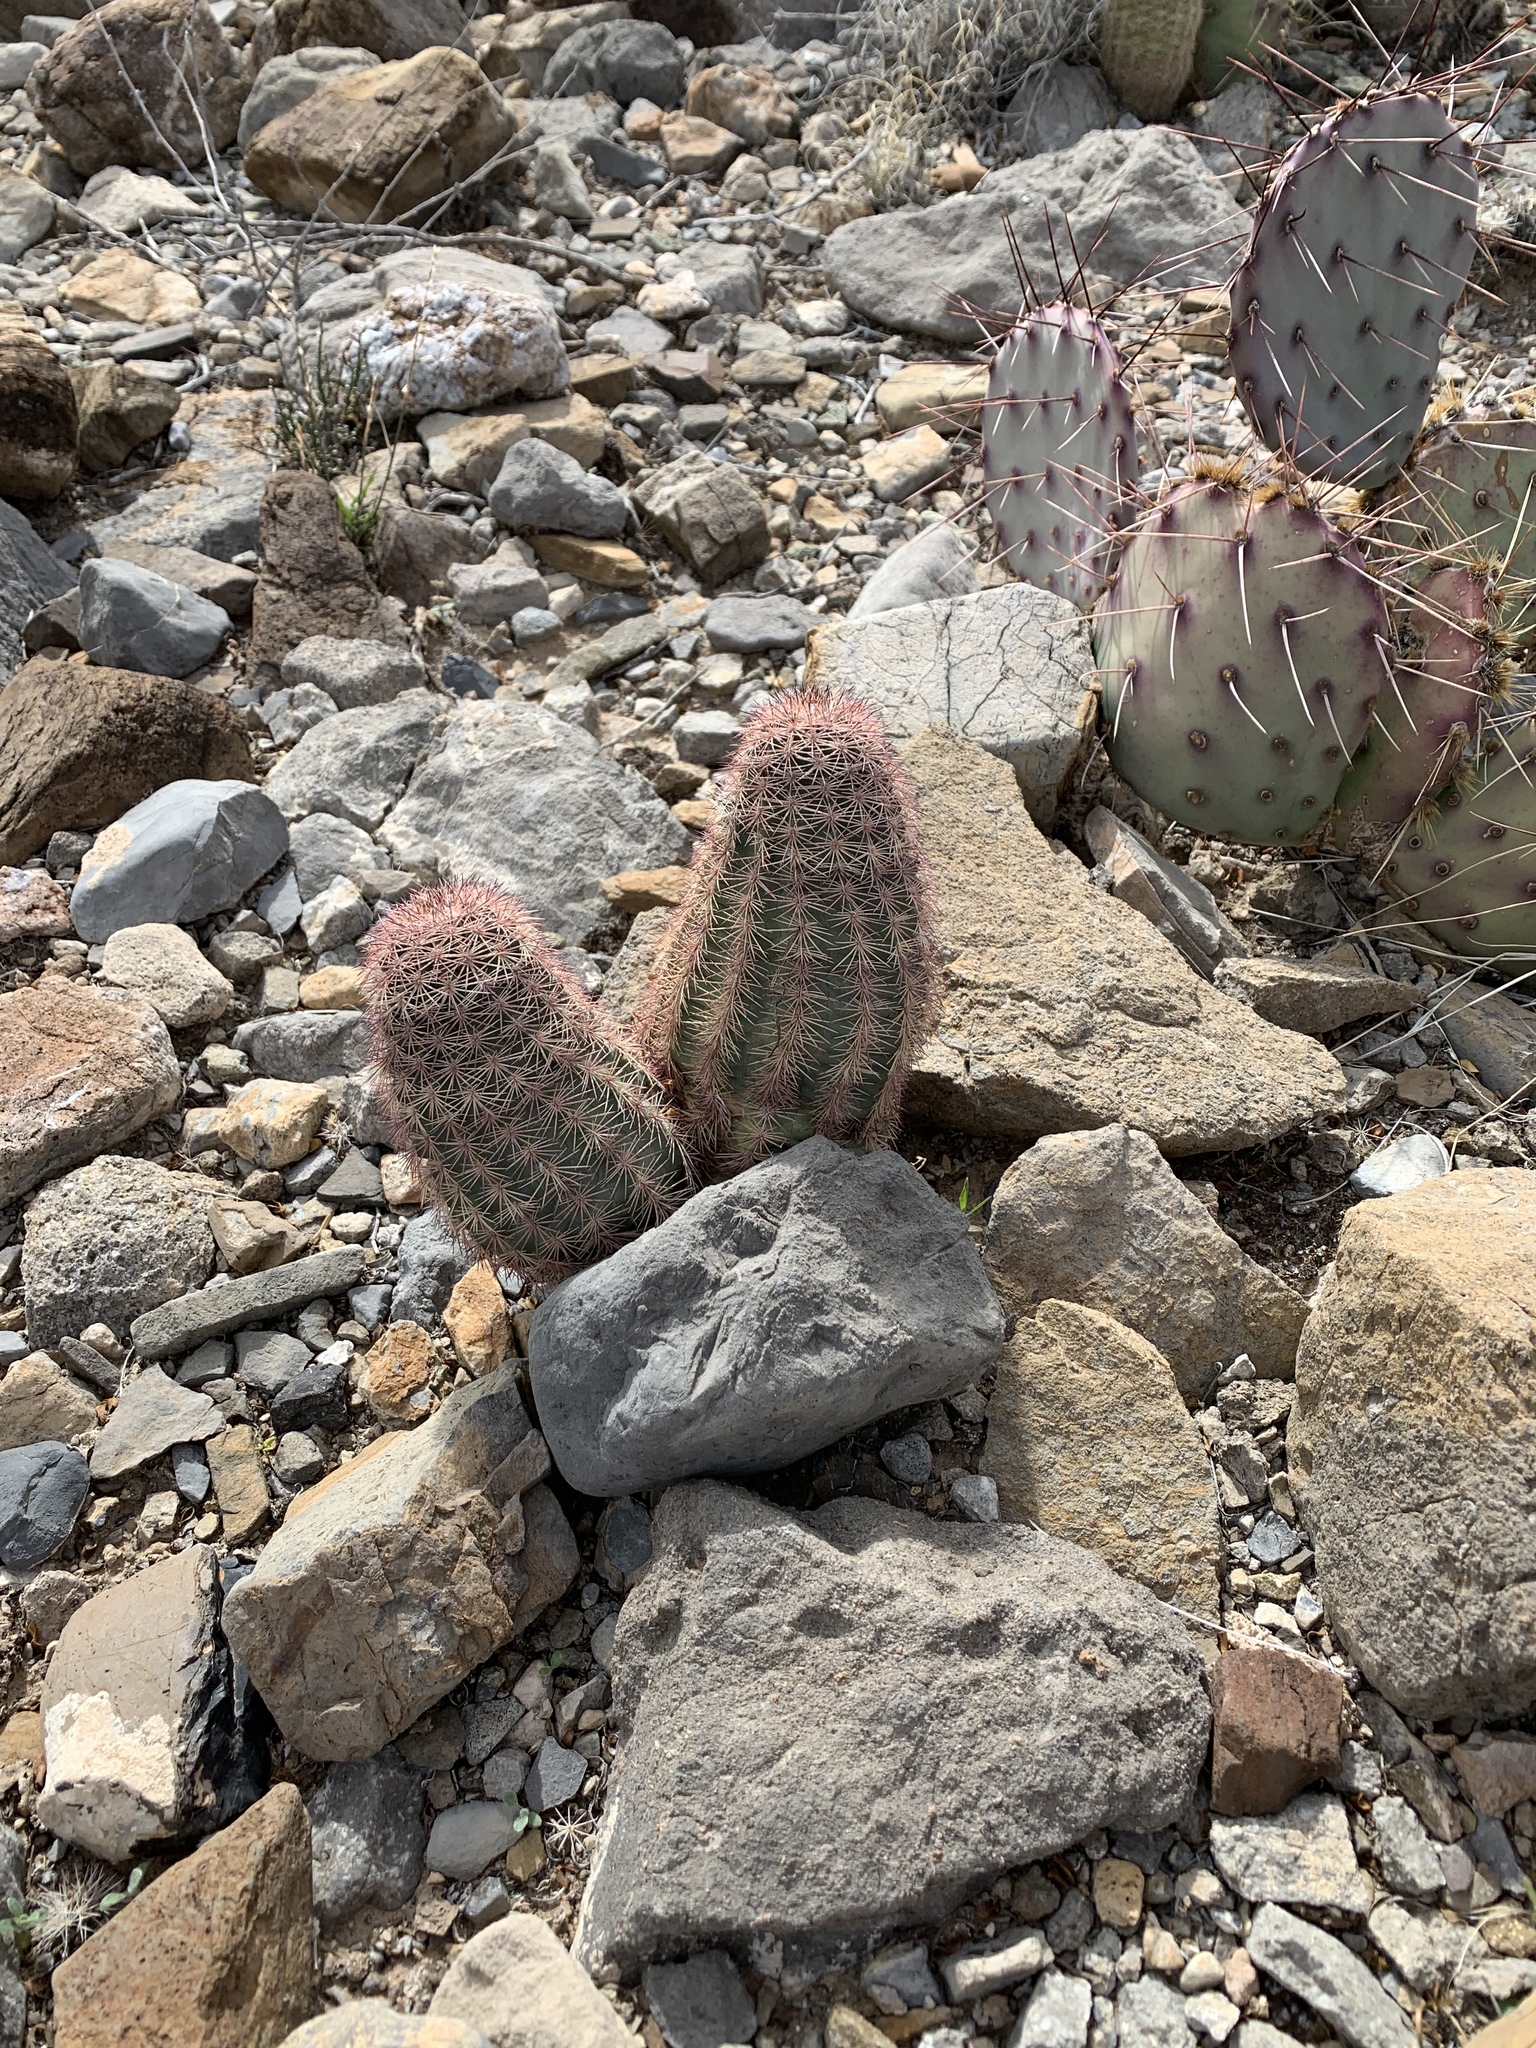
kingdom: Plantae
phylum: Tracheophyta
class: Magnoliopsida
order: Caryophyllales
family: Cactaceae
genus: Echinocereus
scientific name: Echinocereus dasyacanthus
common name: Spiny hedgehog cactus
